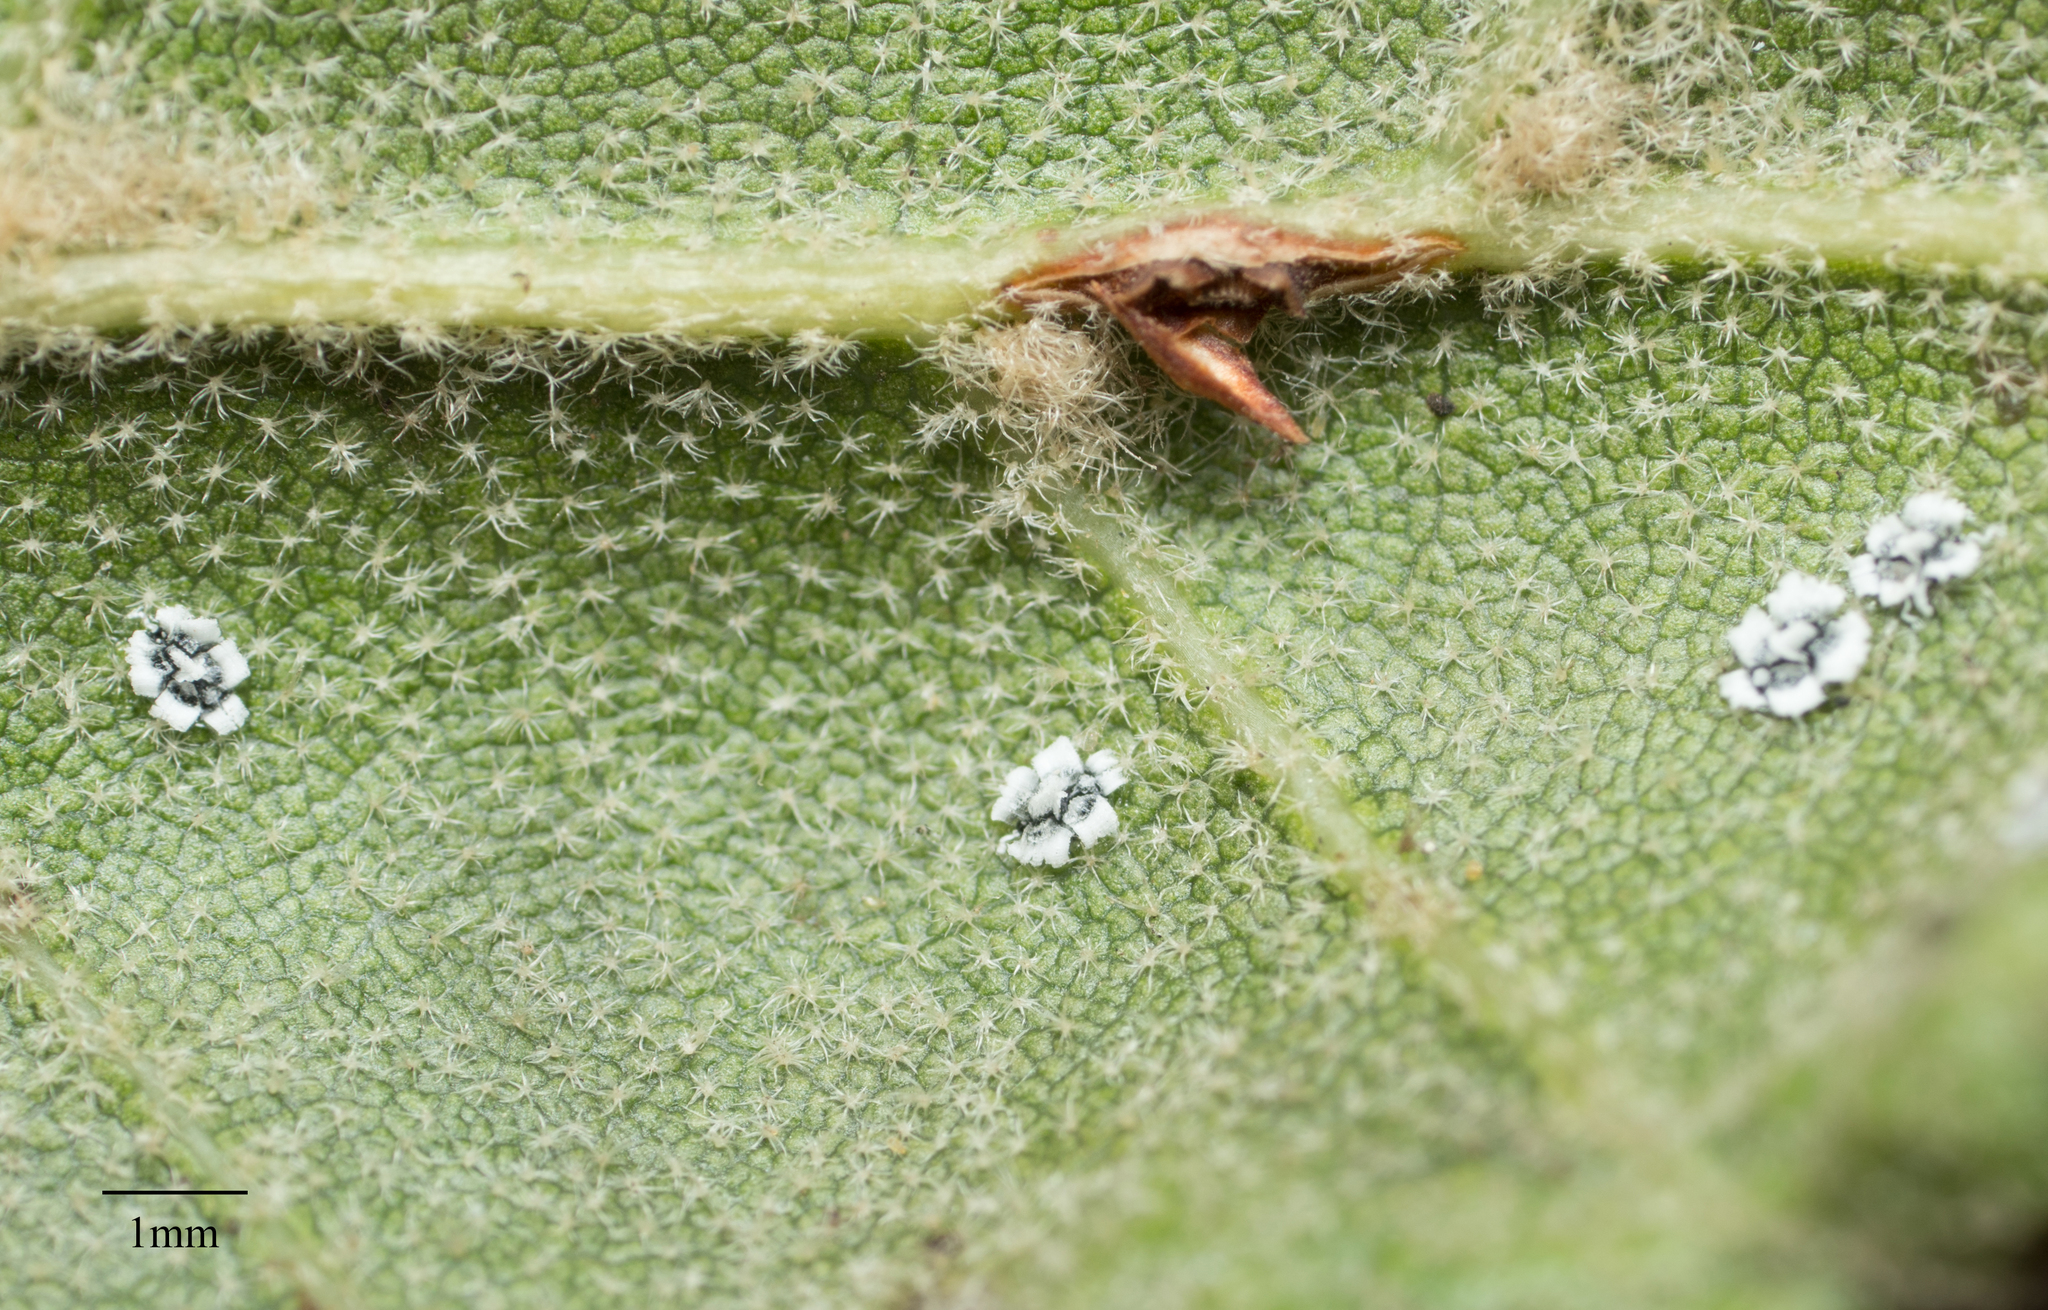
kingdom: Animalia
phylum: Arthropoda
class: Insecta
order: Hemiptera
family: Aleyrodidae
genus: Aleuroplatus
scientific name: Aleuroplatus coronata
